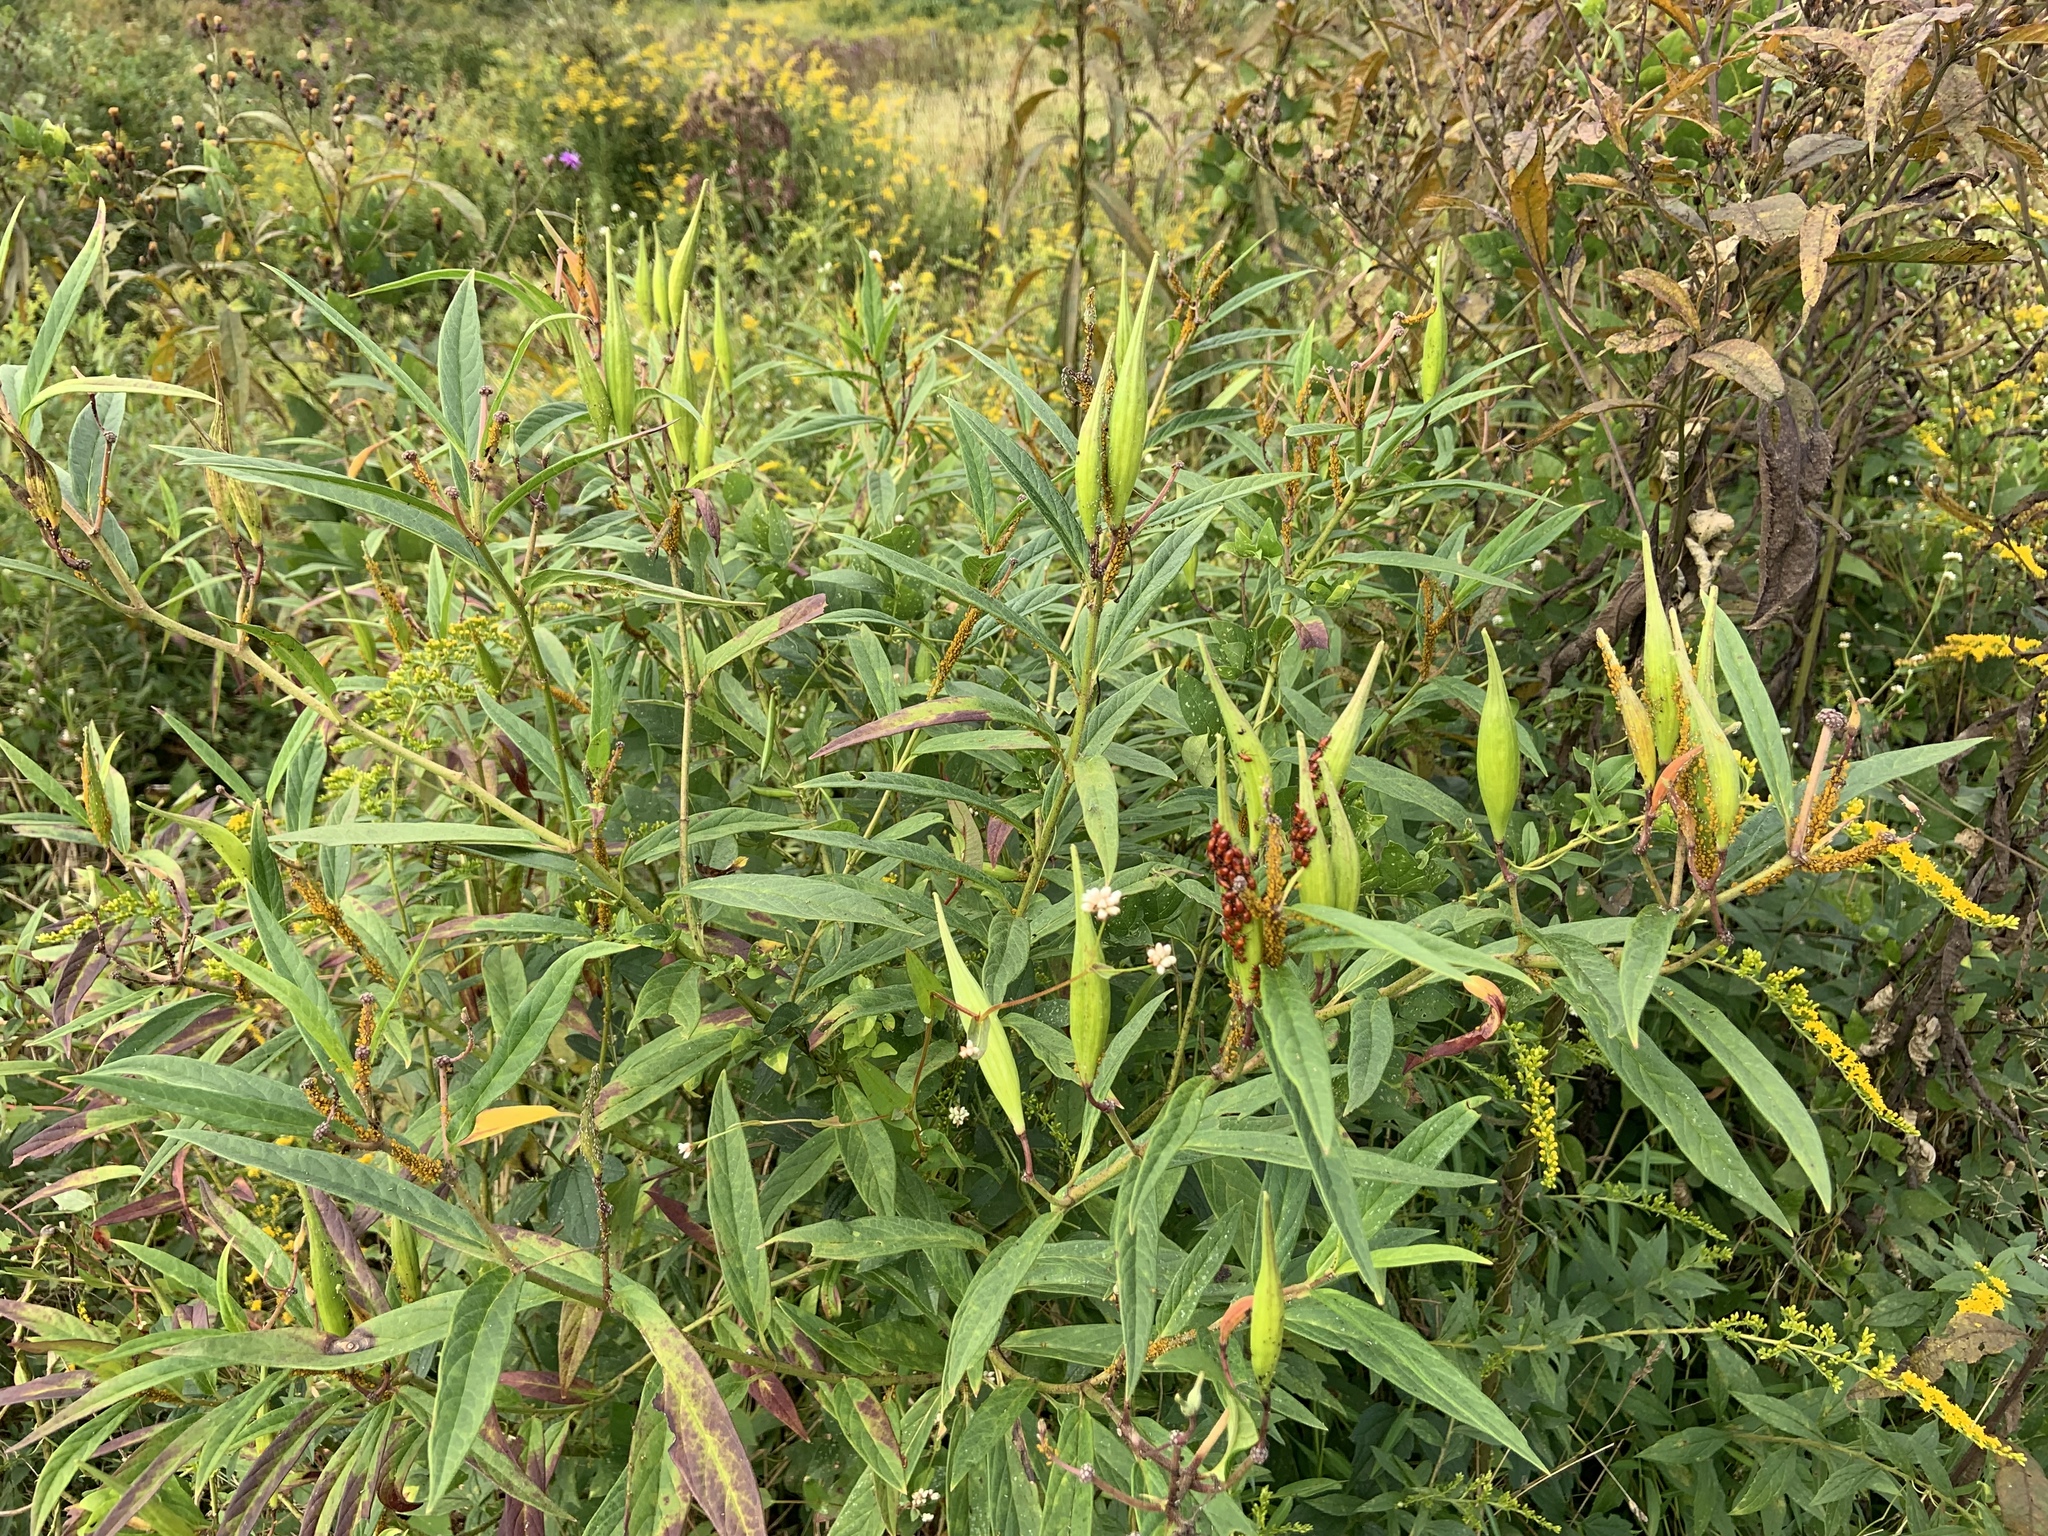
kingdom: Plantae
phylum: Tracheophyta
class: Magnoliopsida
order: Gentianales
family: Apocynaceae
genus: Asclepias
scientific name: Asclepias incarnata
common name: Swamp milkweed
